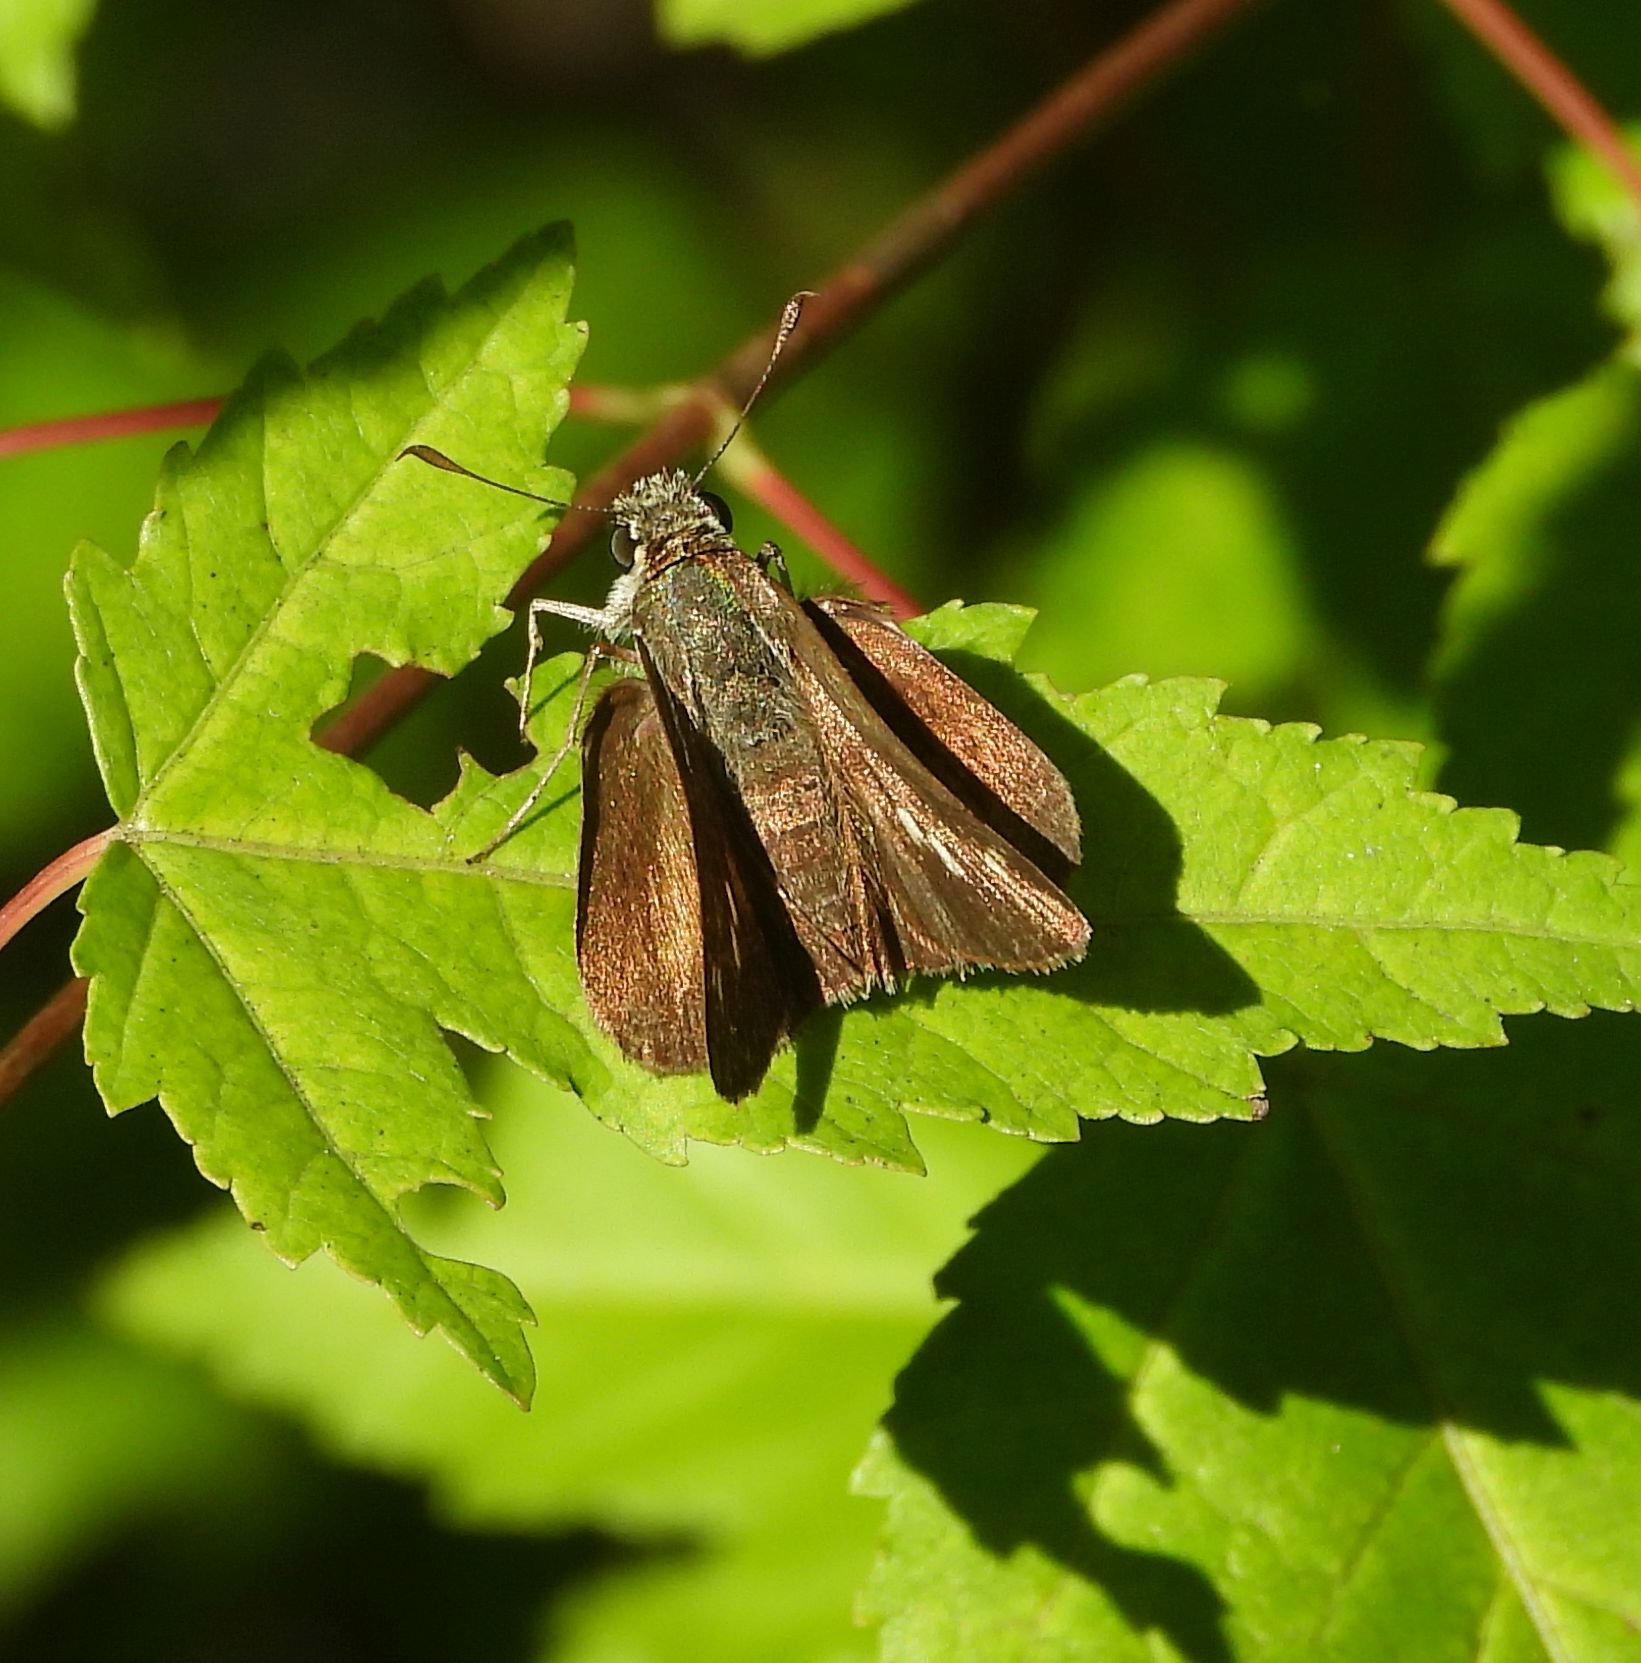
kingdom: Animalia
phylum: Arthropoda
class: Insecta
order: Lepidoptera
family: Hesperiidae
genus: Euphyes
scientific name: Euphyes vestris
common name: Dun skipper
